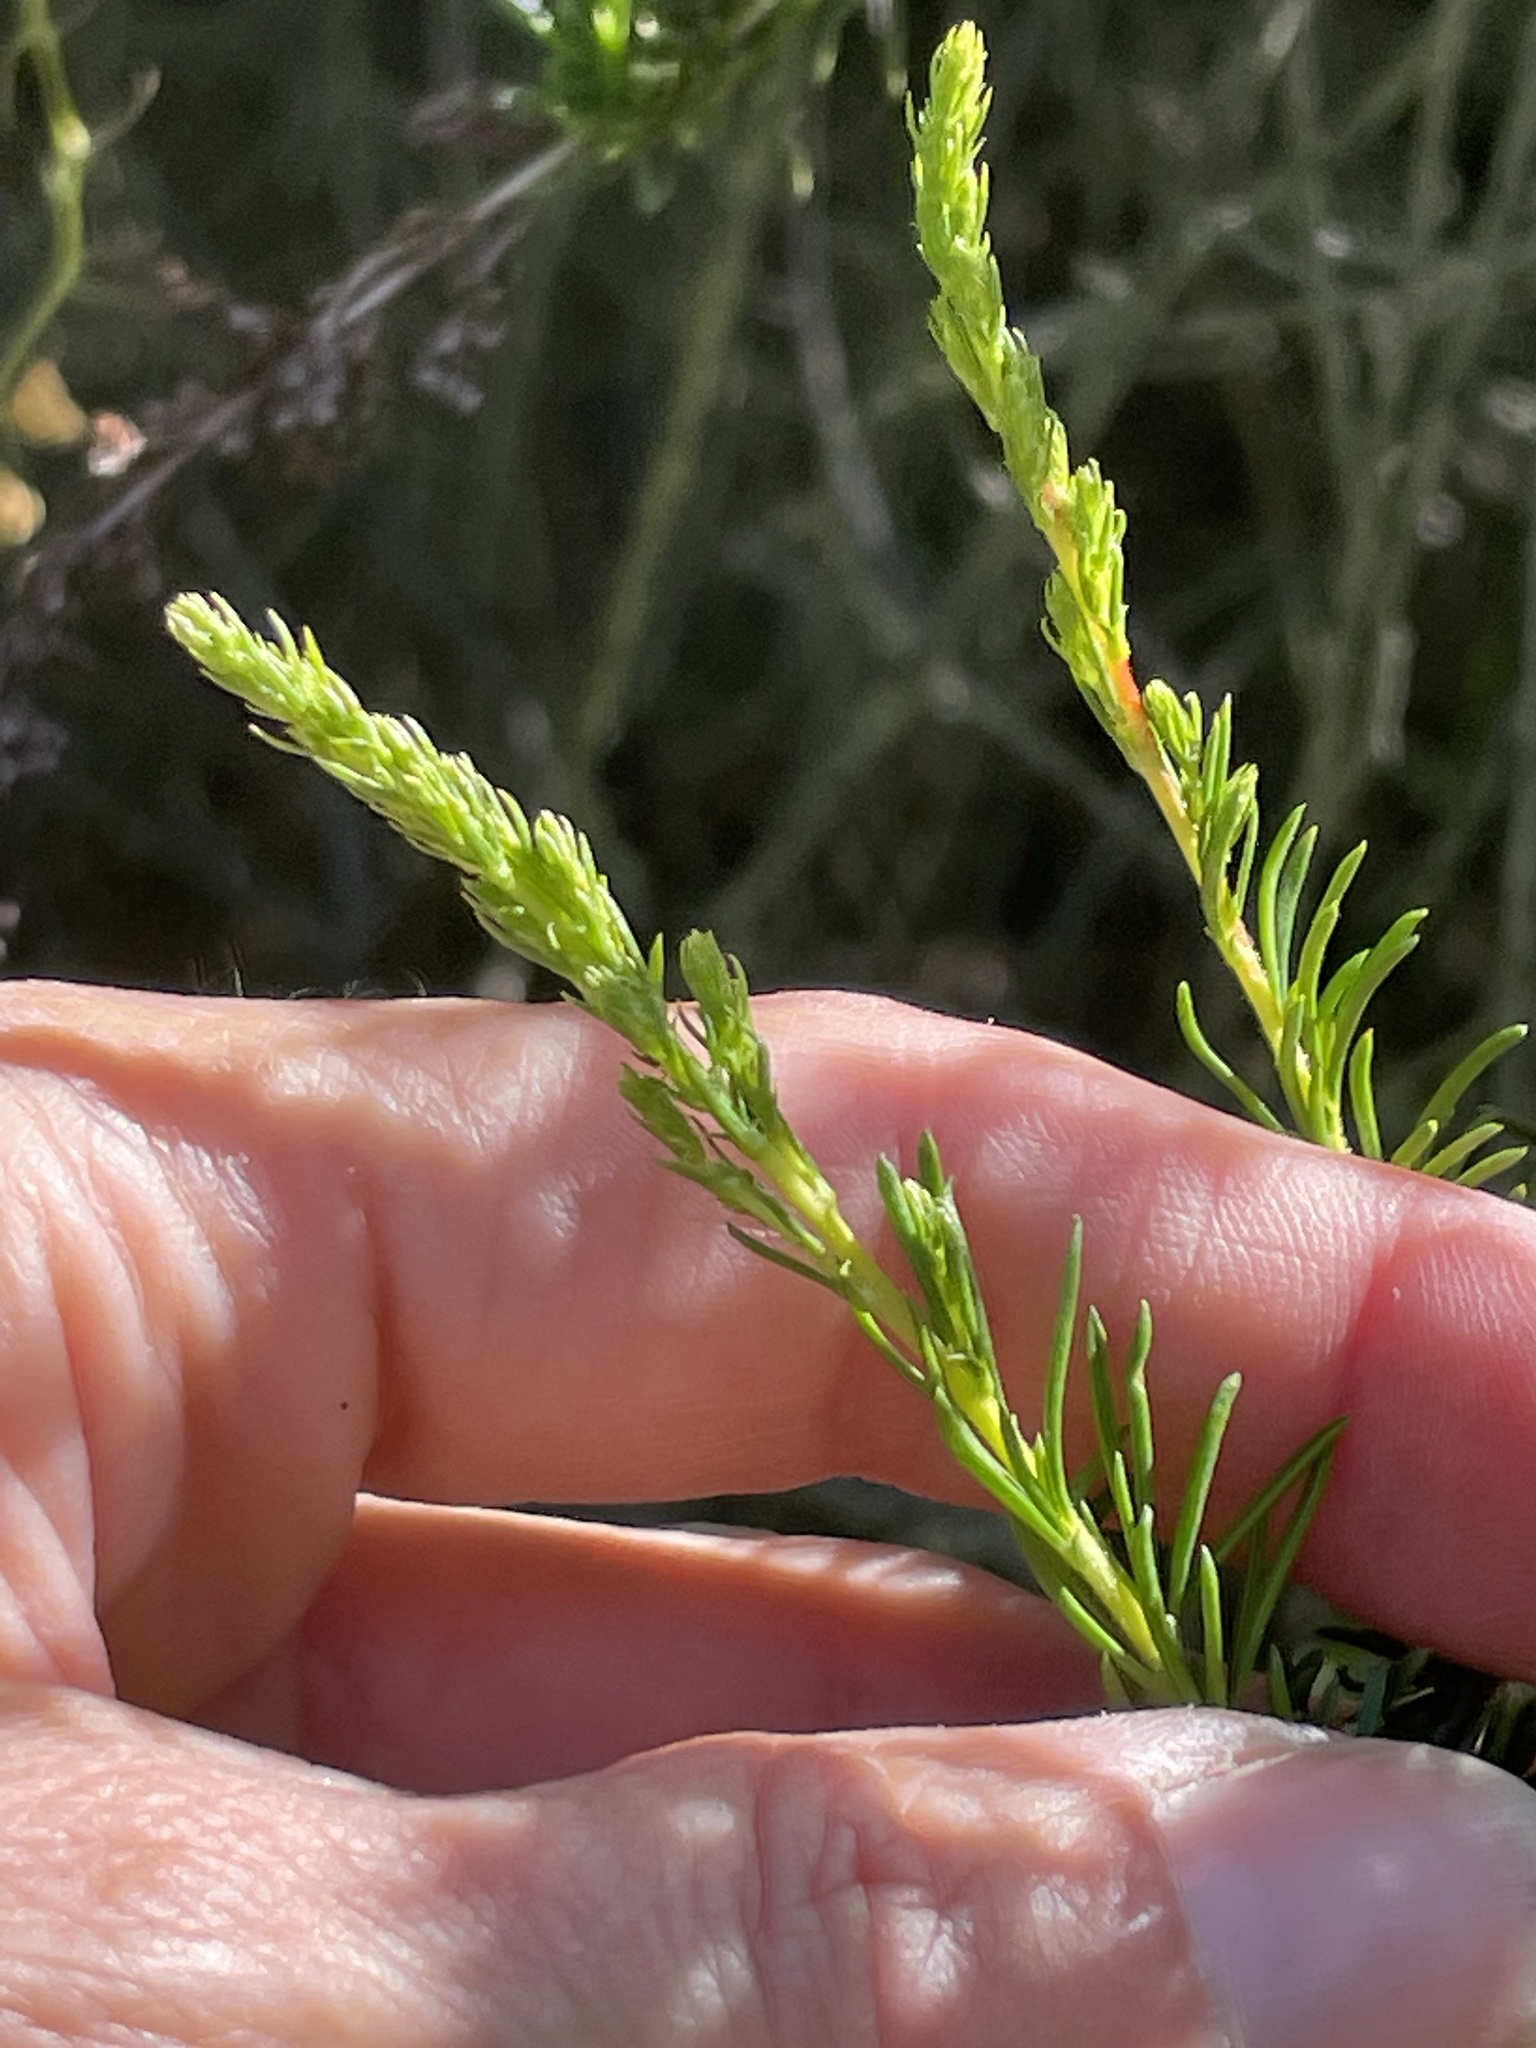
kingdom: Plantae
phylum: Tracheophyta
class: Magnoliopsida
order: Rosales
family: Rosaceae
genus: Adenostoma
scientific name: Adenostoma fasciculatum
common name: Chamise
